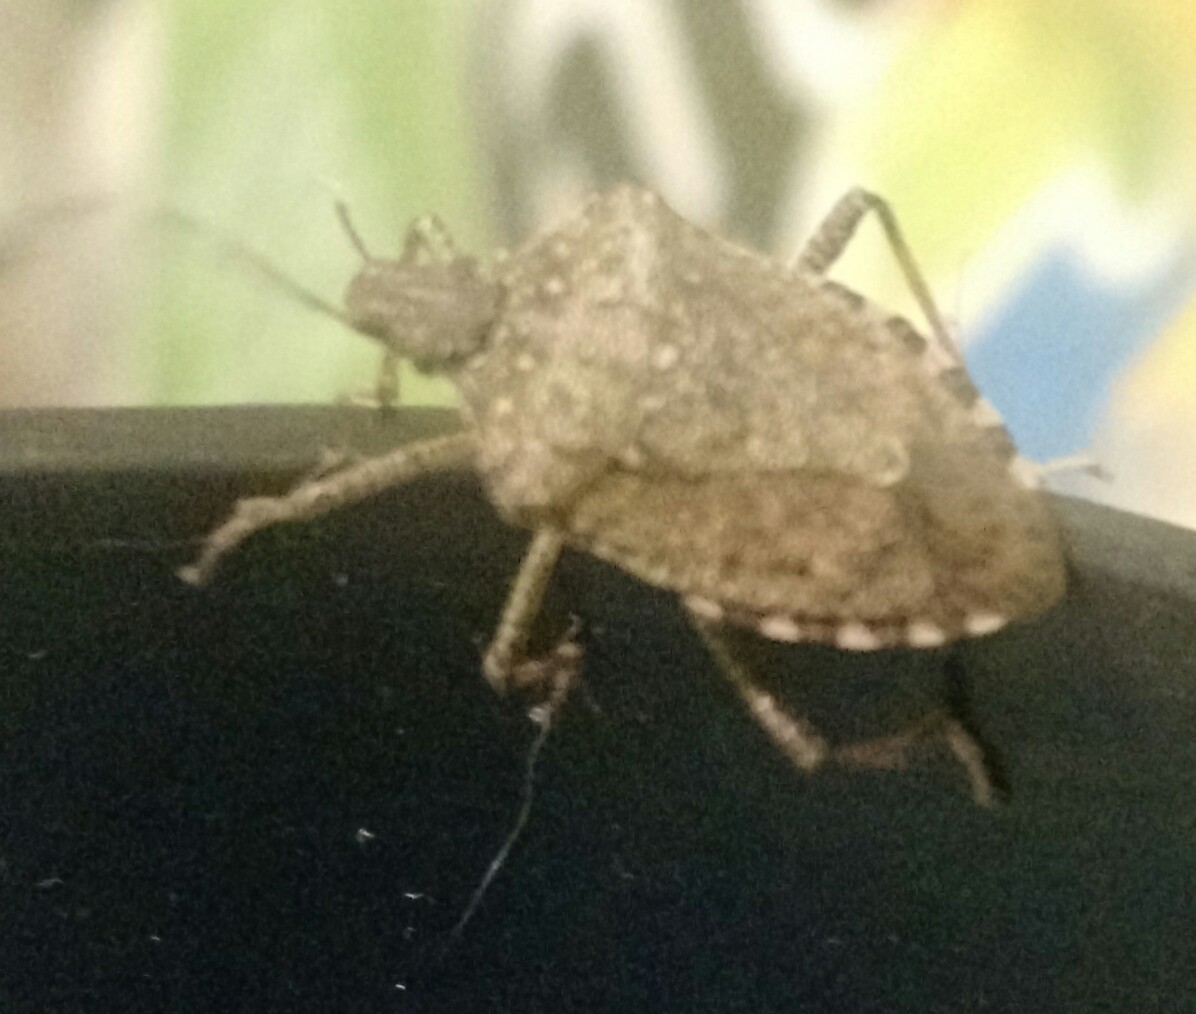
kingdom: Animalia
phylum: Arthropoda
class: Insecta
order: Hemiptera
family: Pentatomidae
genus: Halyomorpha
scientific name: Halyomorpha halys
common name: Brown marmorated stink bug
